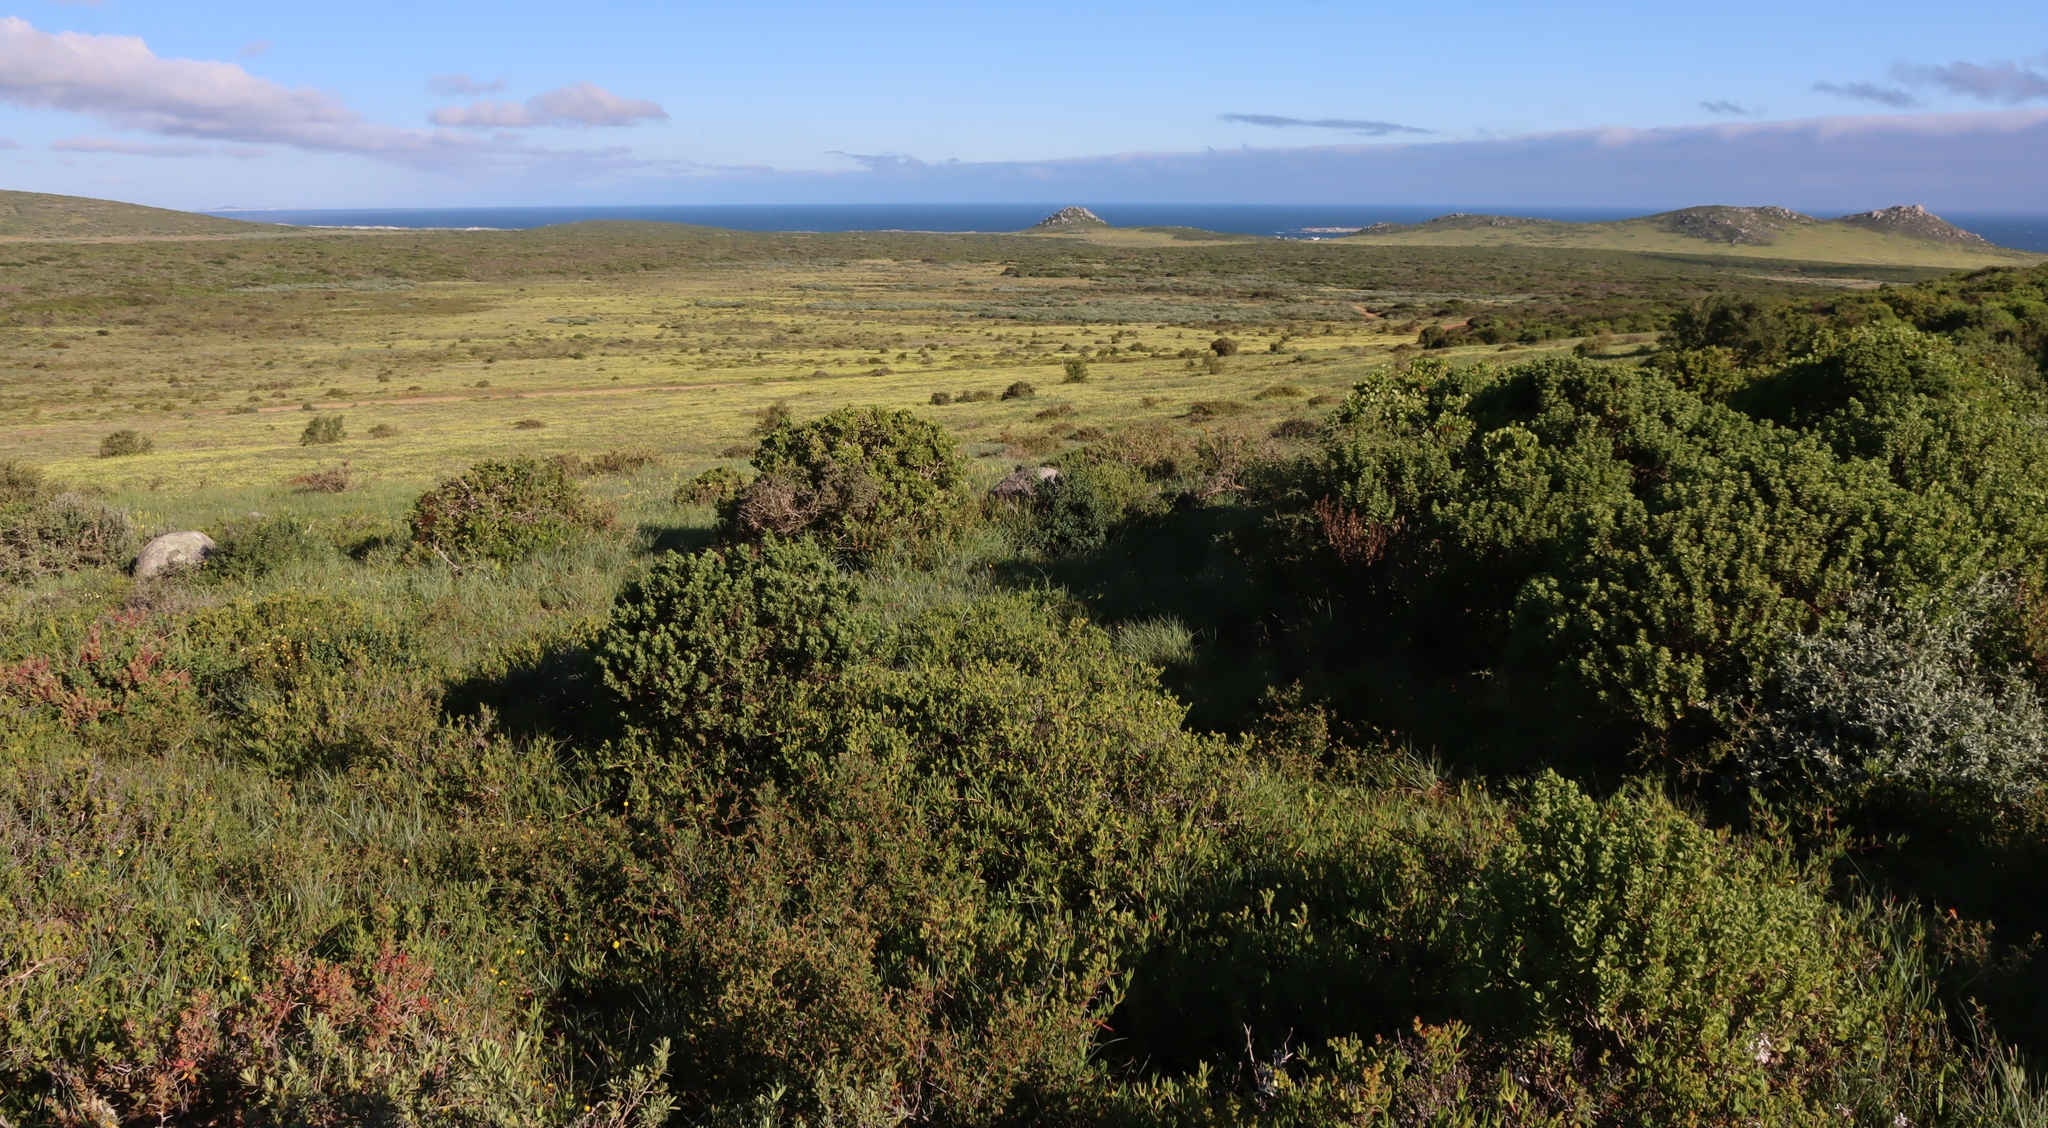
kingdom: Plantae
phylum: Tracheophyta
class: Magnoliopsida
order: Oxalidales
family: Oxalidaceae
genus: Oxalis
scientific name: Oxalis pes-caprae
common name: Bermuda-buttercup
